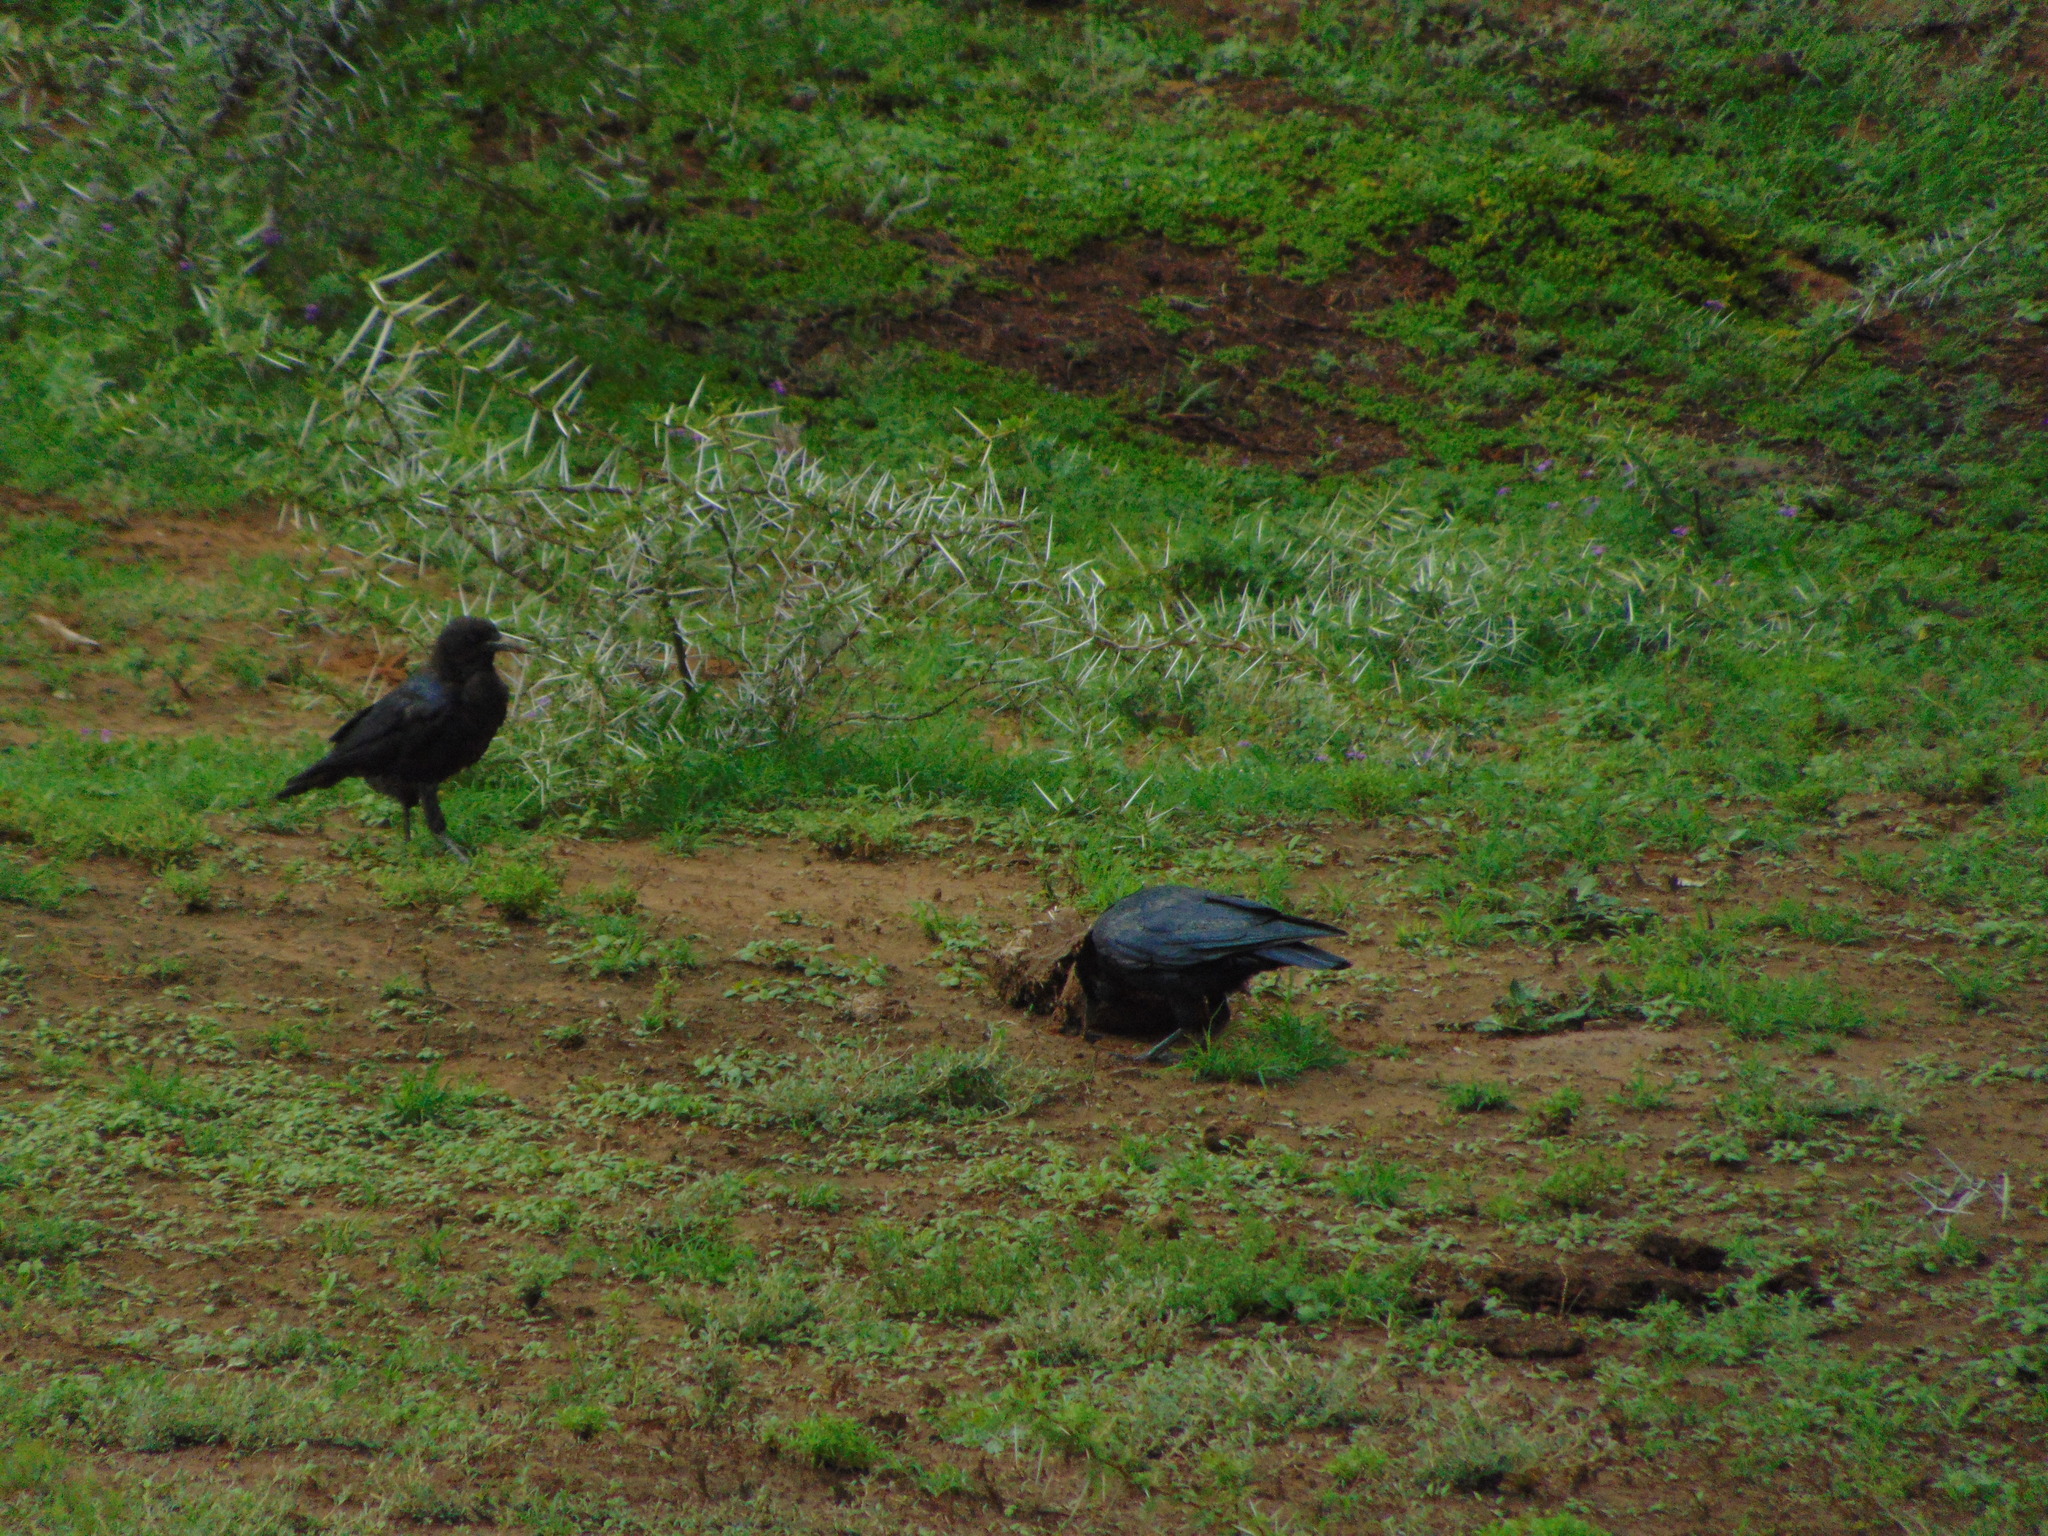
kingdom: Animalia
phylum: Chordata
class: Aves
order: Passeriformes
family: Corvidae
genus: Corvus
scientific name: Corvus capensis
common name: Cape crow
